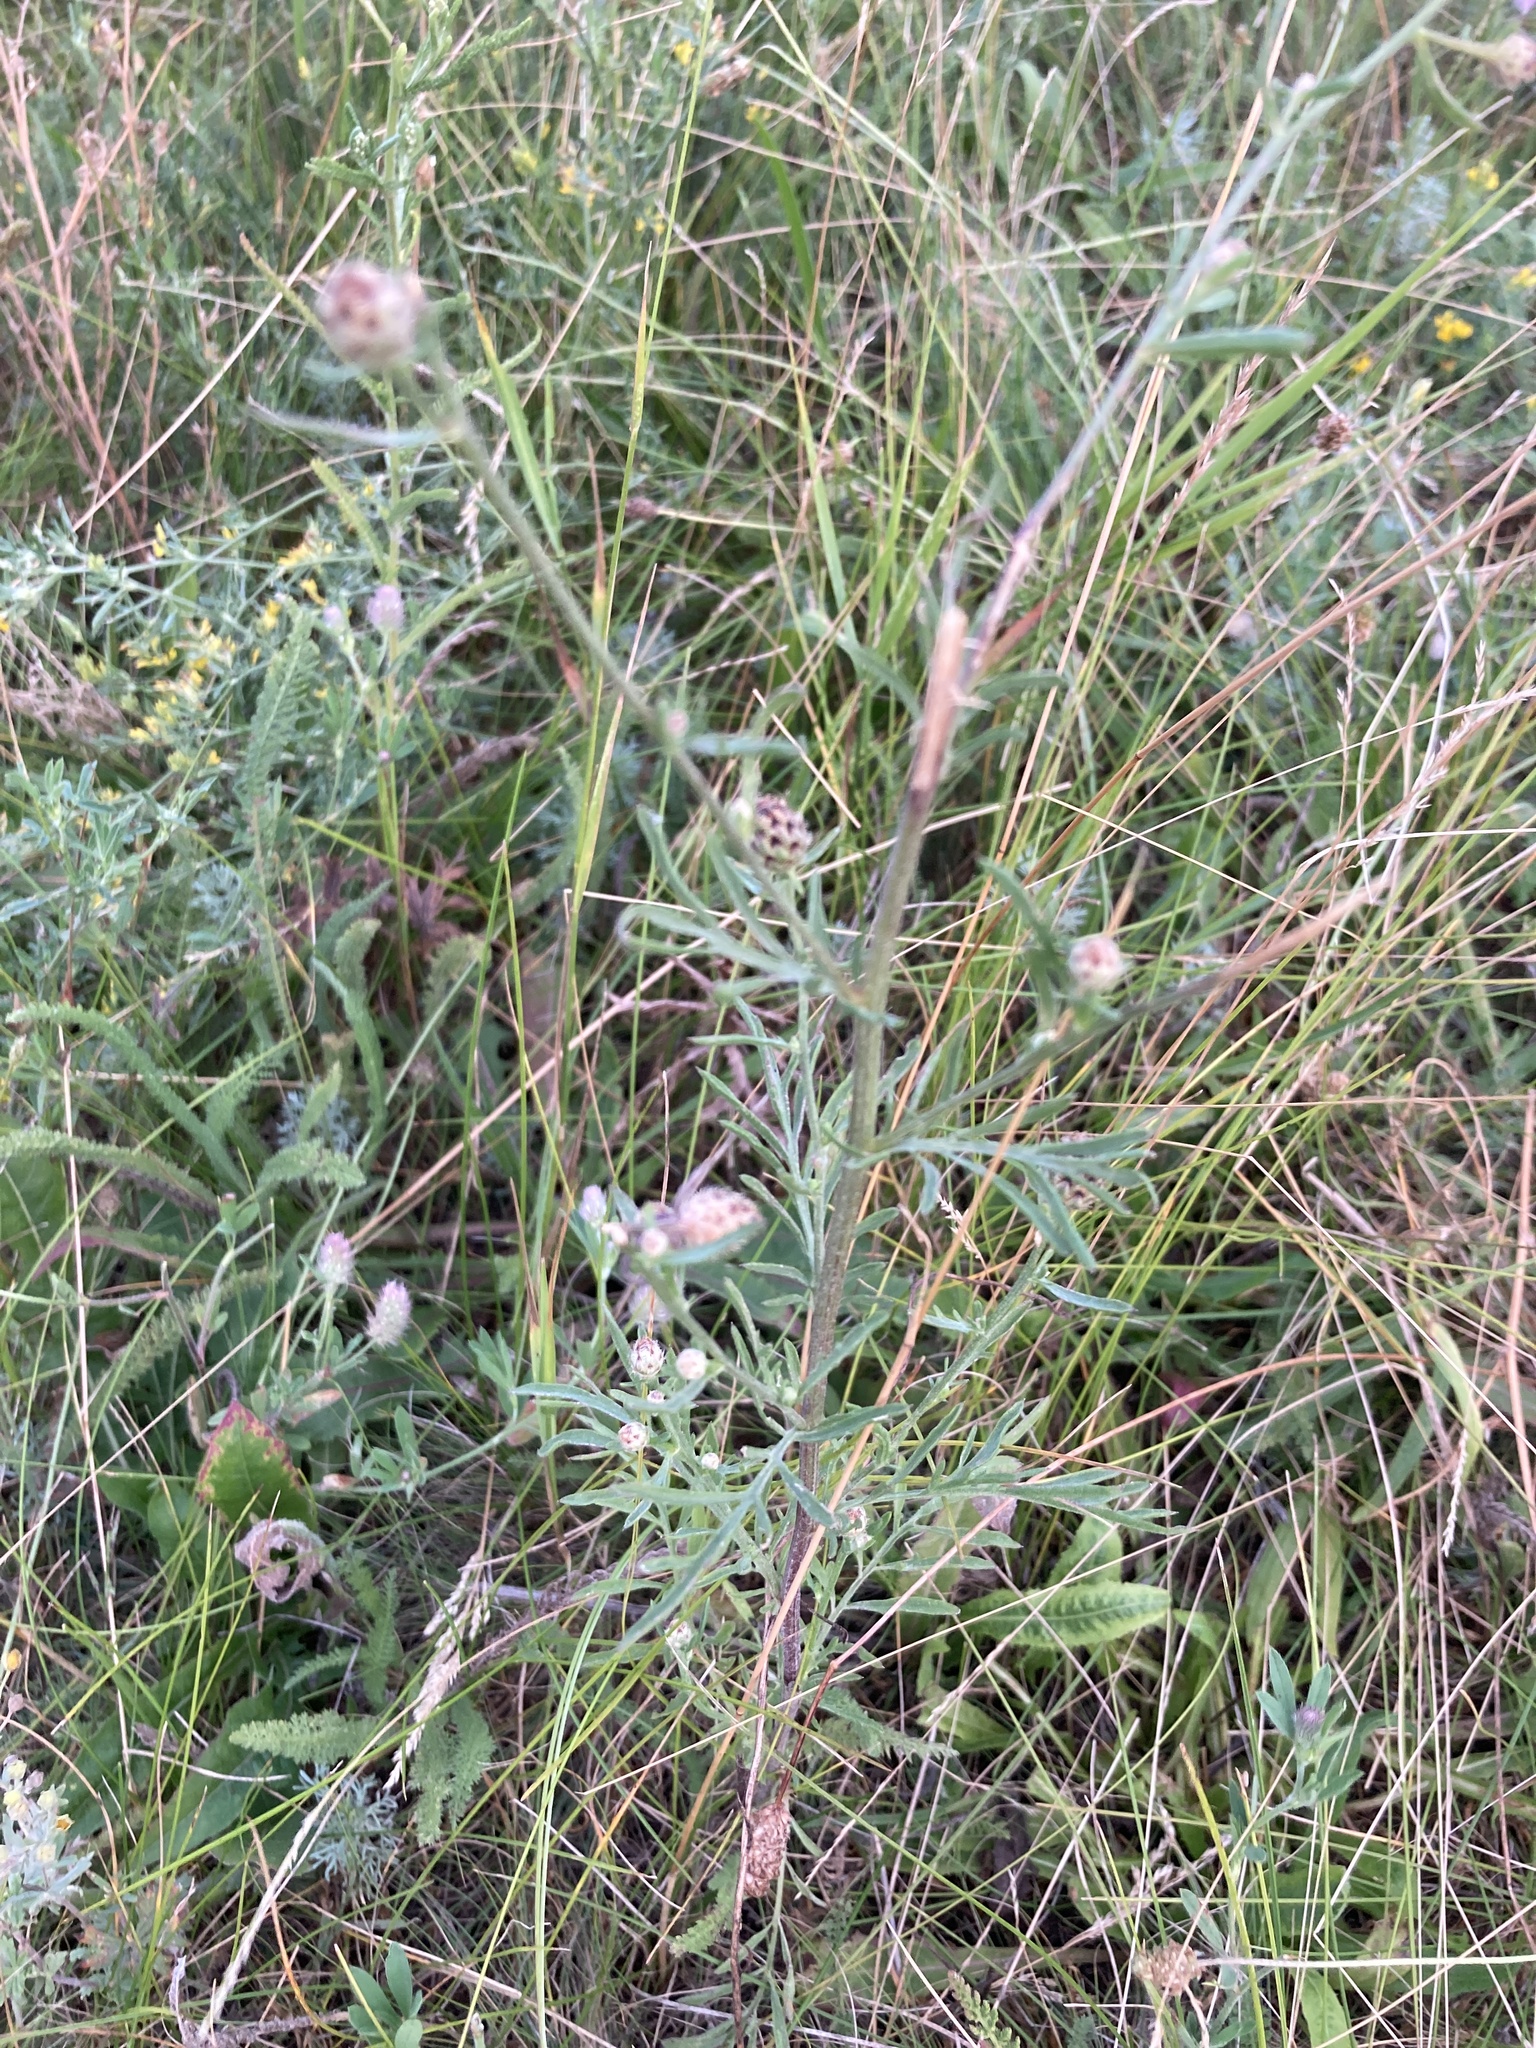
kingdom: Plantae
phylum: Tracheophyta
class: Magnoliopsida
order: Asterales
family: Asteraceae
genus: Centaurea
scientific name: Centaurea stoebe
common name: Spotted knapweed
